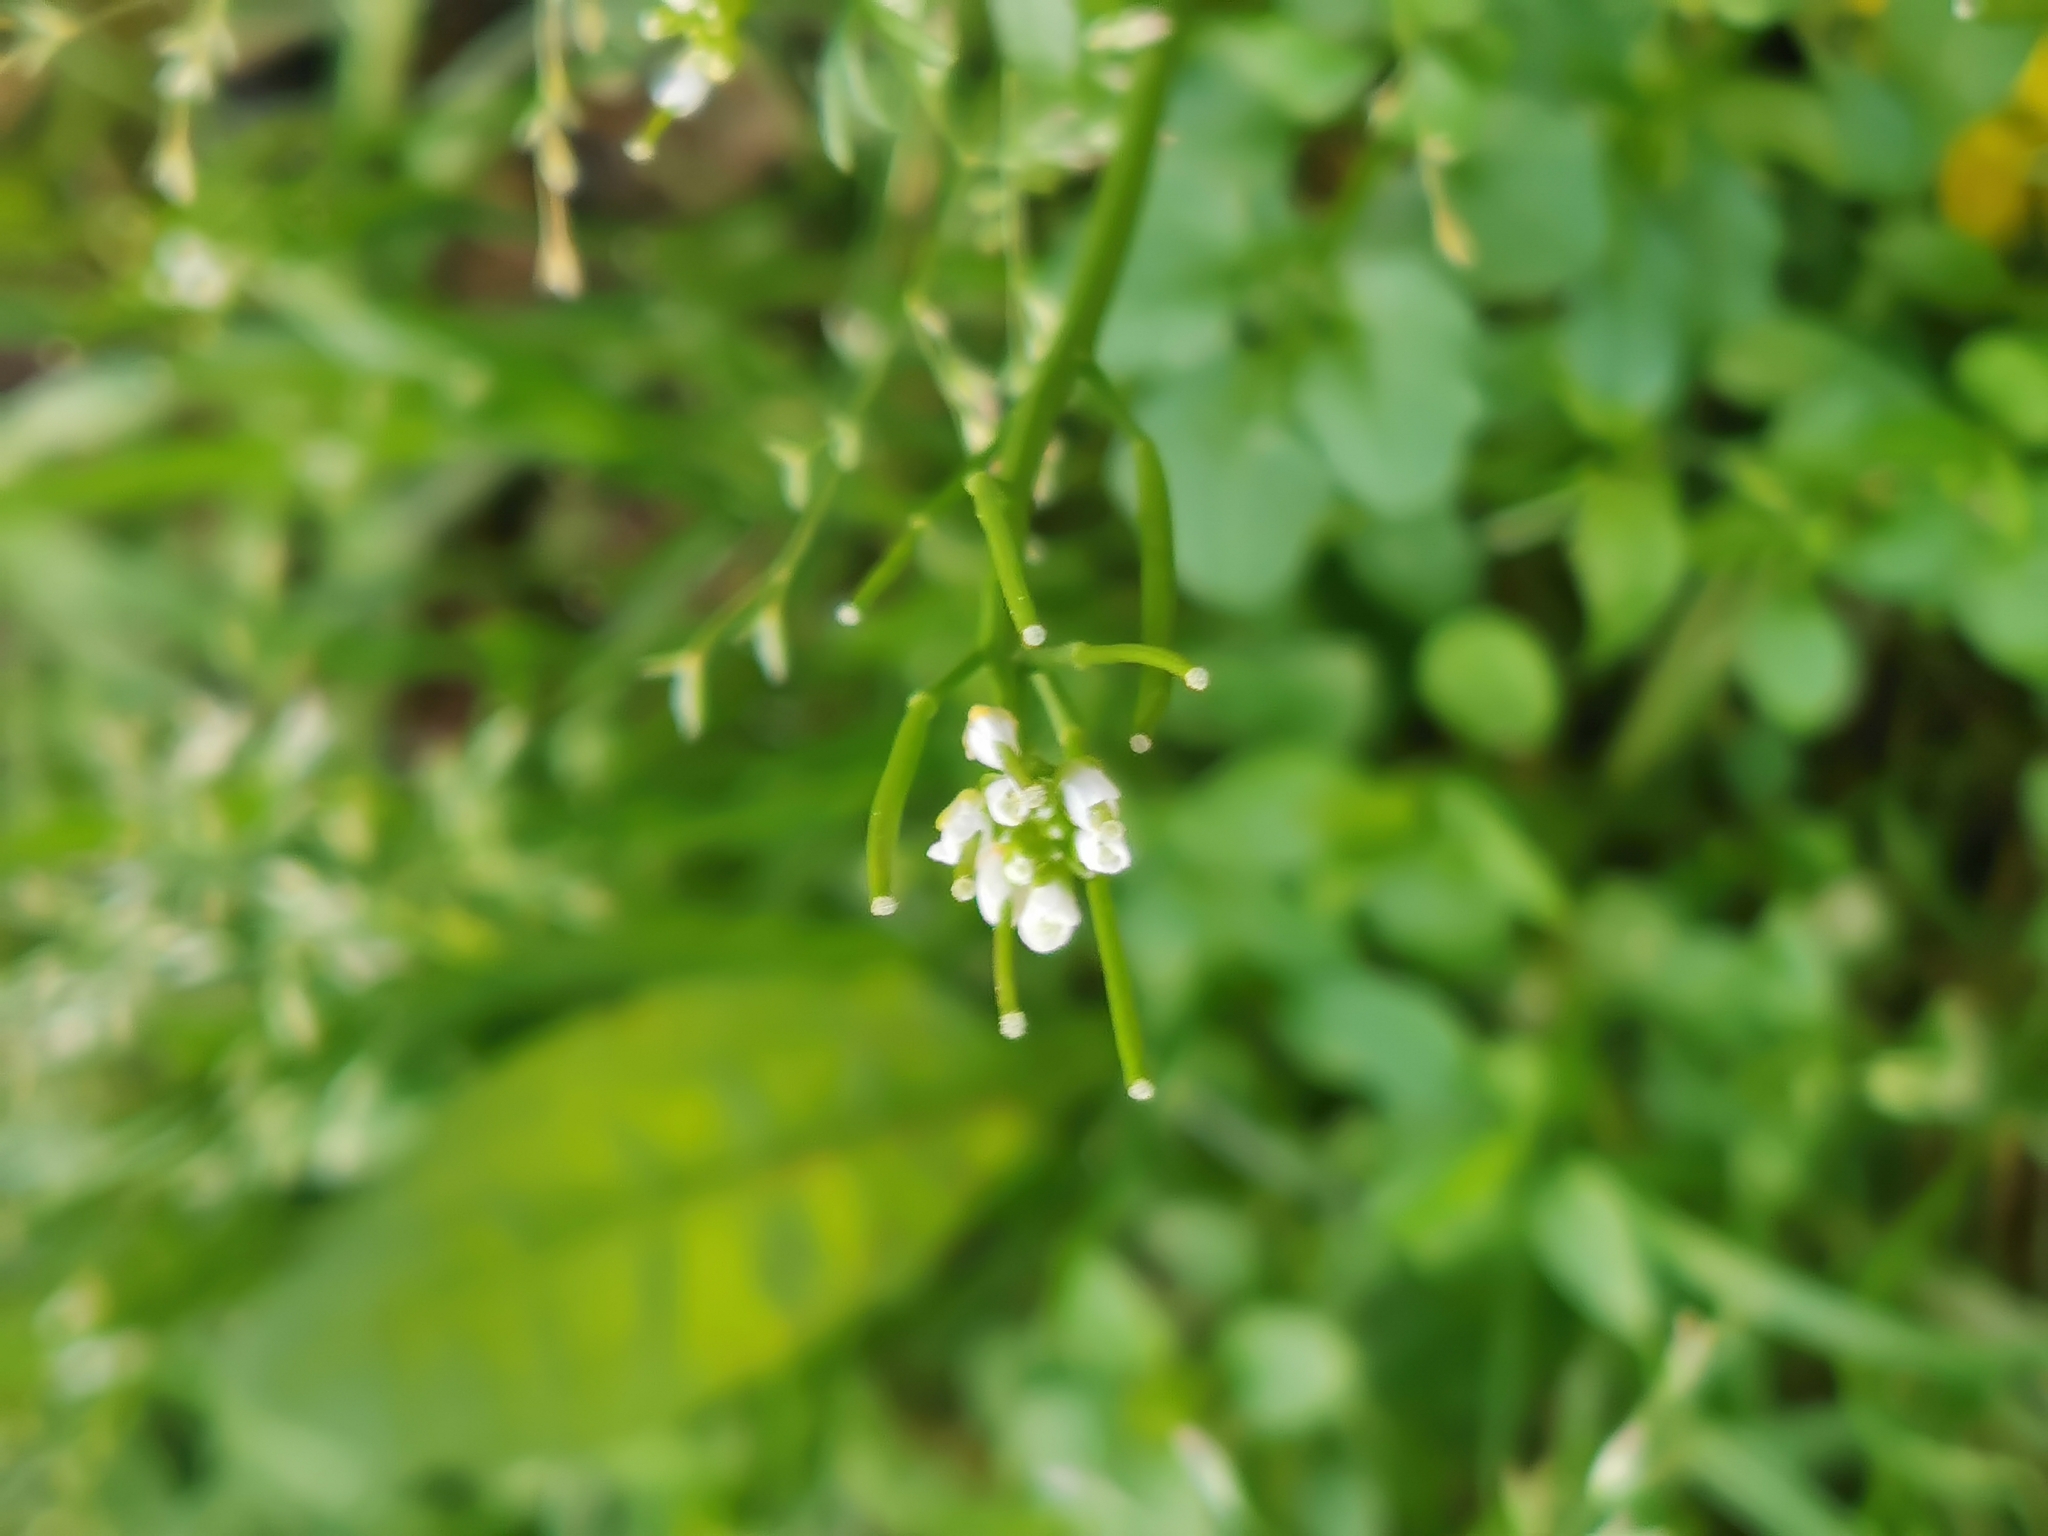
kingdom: Plantae
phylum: Tracheophyta
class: Magnoliopsida
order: Brassicales
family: Brassicaceae
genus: Cardamine
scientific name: Cardamine hirsuta
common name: Hairy bittercress
